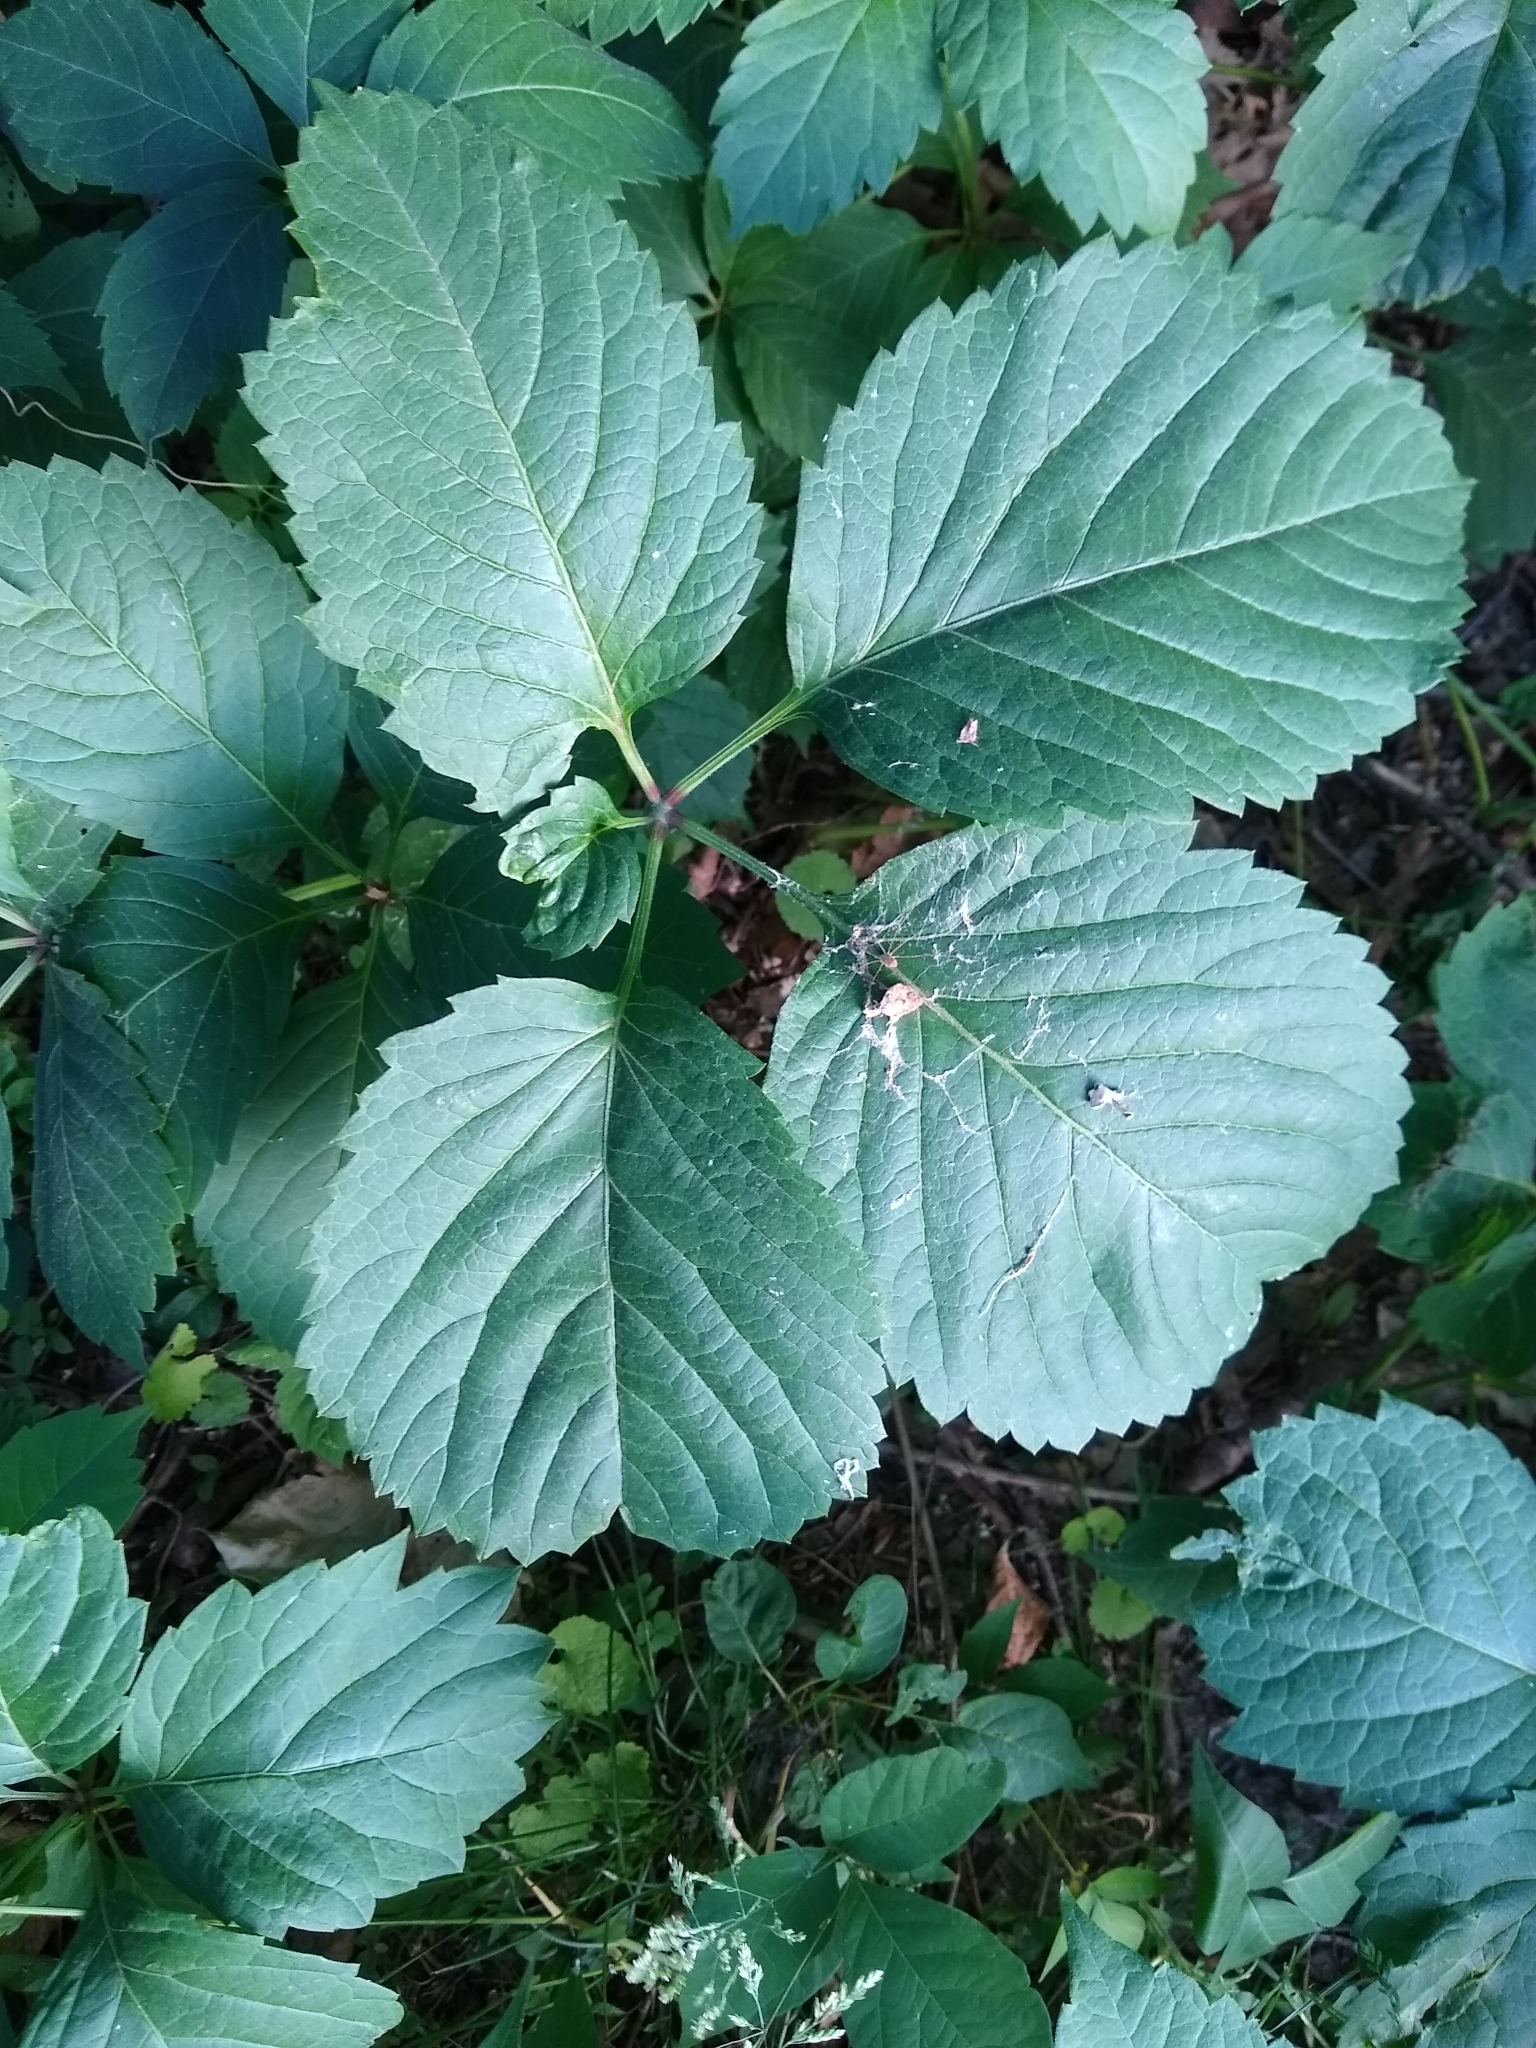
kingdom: Plantae
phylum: Tracheophyta
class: Magnoliopsida
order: Vitales
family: Vitaceae
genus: Parthenocissus
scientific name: Parthenocissus inserta
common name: False virginia-creeper
